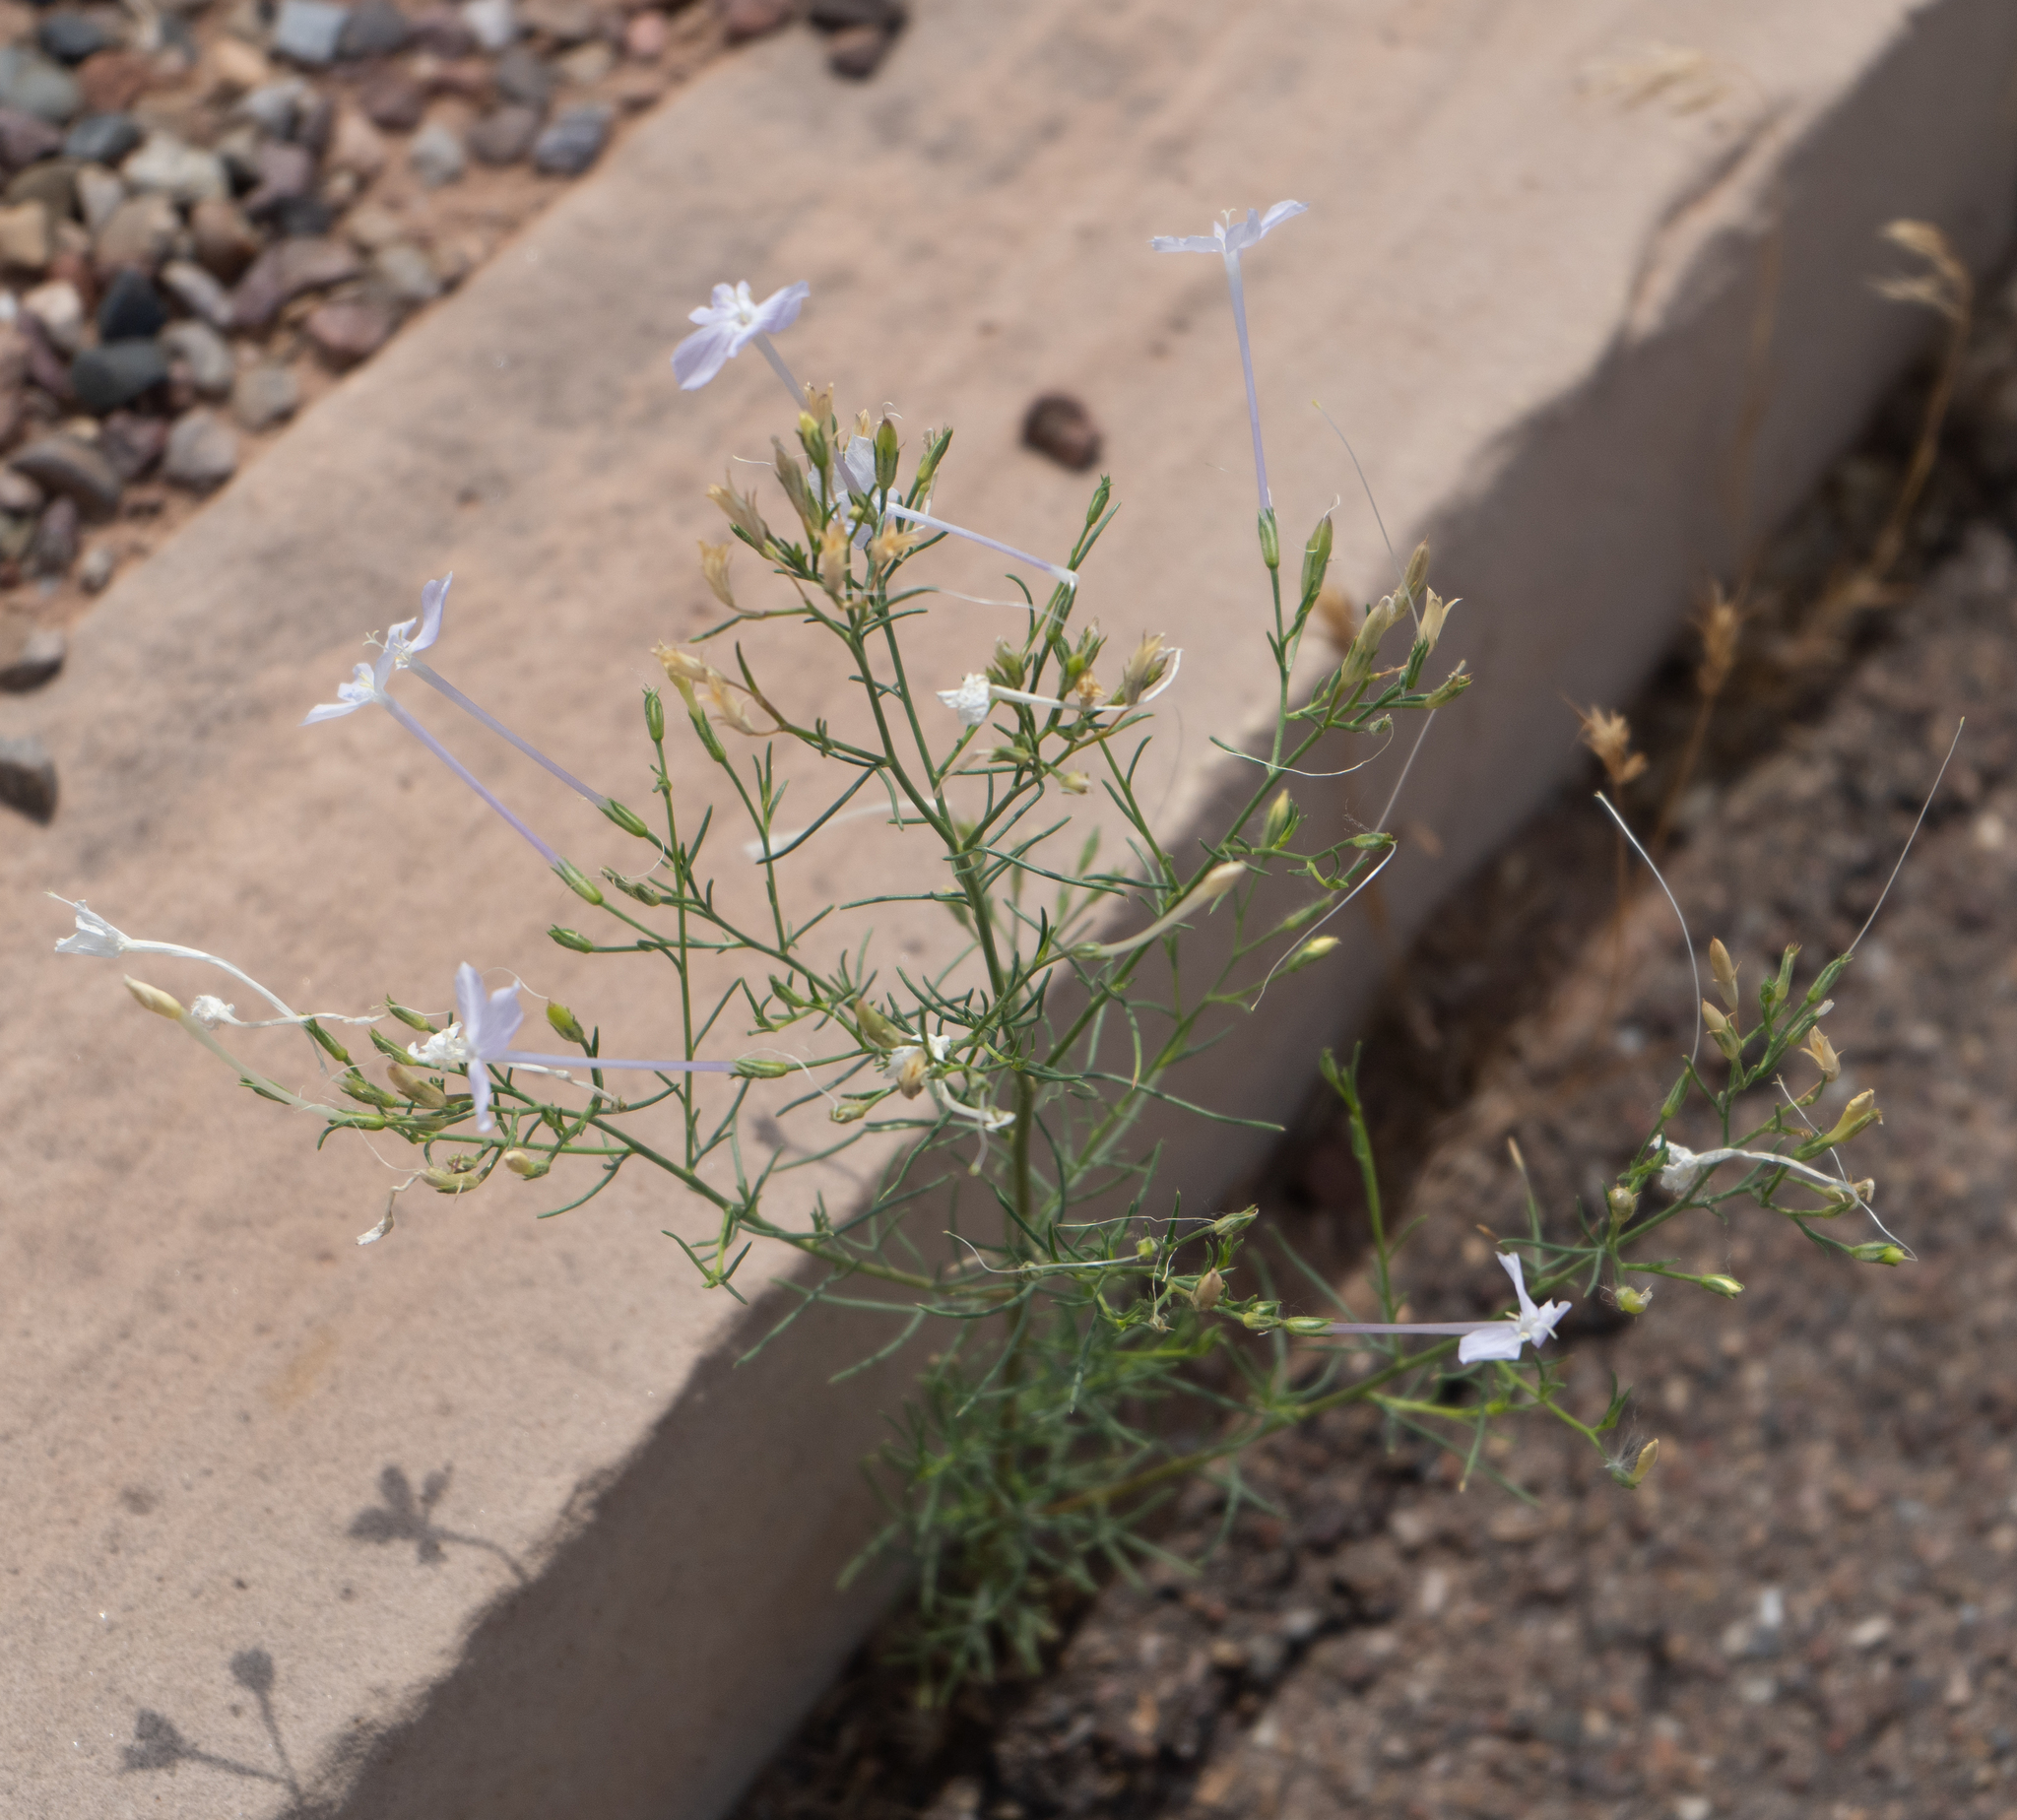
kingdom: Plantae
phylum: Tracheophyta
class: Magnoliopsida
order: Ericales
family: Polemoniaceae
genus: Ipomopsis
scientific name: Ipomopsis longiflora
